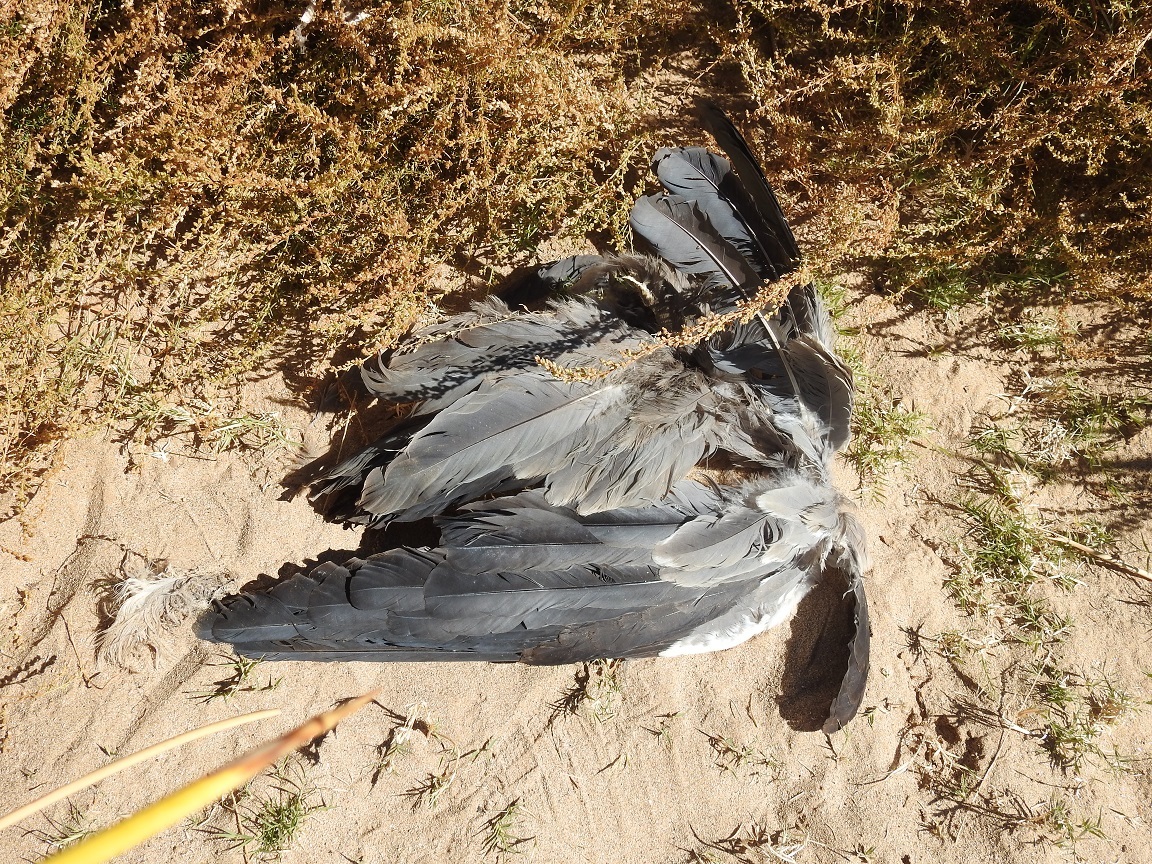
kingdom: Animalia
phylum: Chordata
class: Aves
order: Pelecaniformes
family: Ardeidae
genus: Ardea
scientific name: Ardea cinerea
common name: Grey heron
